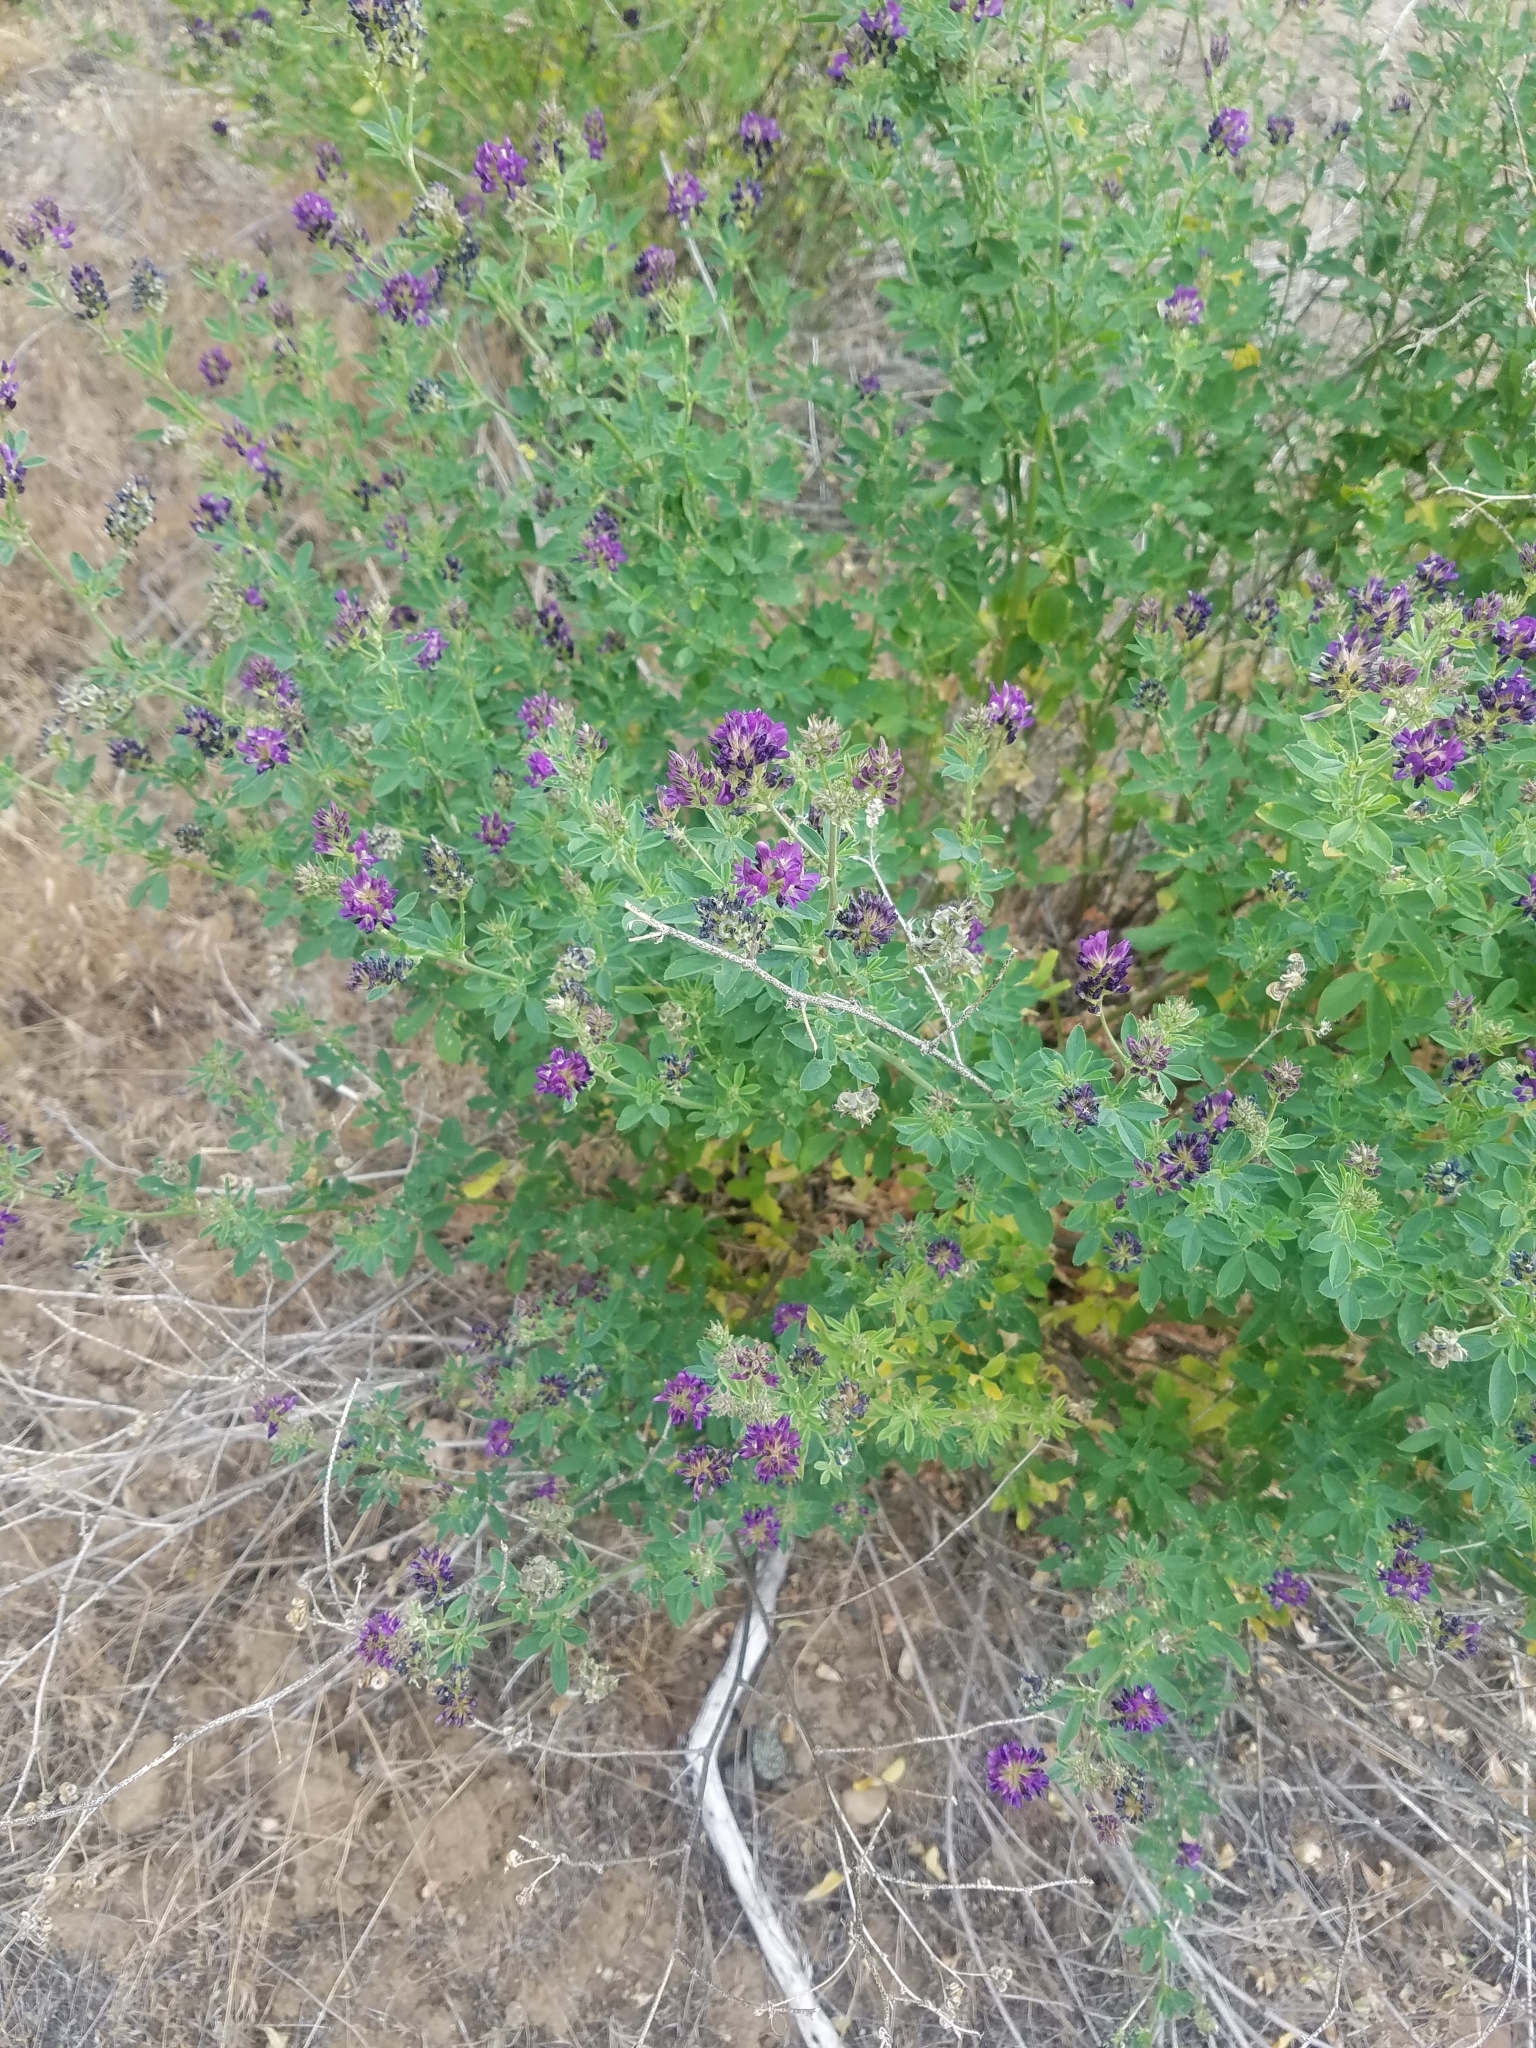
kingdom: Plantae
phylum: Tracheophyta
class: Magnoliopsida
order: Fabales
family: Fabaceae
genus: Medicago
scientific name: Medicago sativa
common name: Alfalfa
